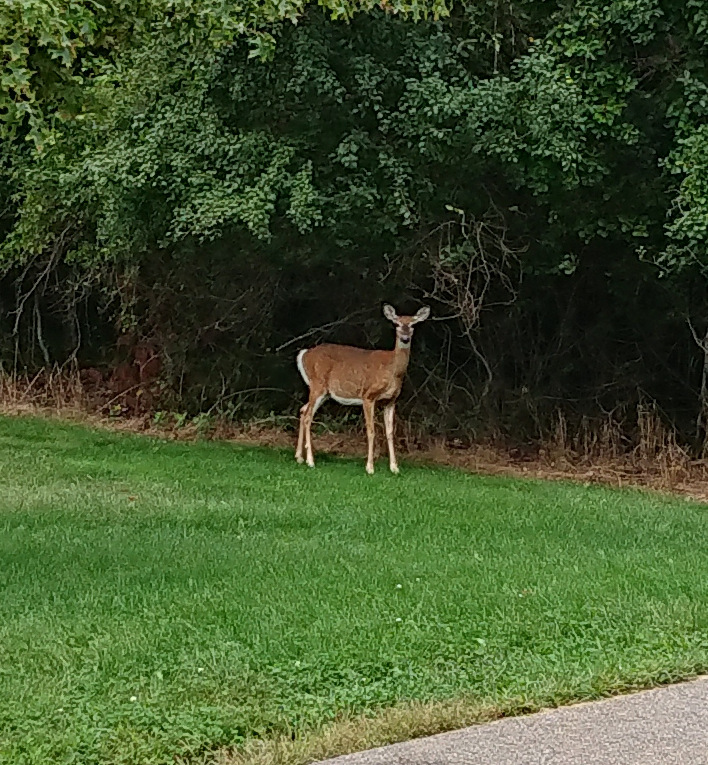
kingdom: Animalia
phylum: Chordata
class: Mammalia
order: Artiodactyla
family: Cervidae
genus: Odocoileus
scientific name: Odocoileus virginianus
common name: White-tailed deer
